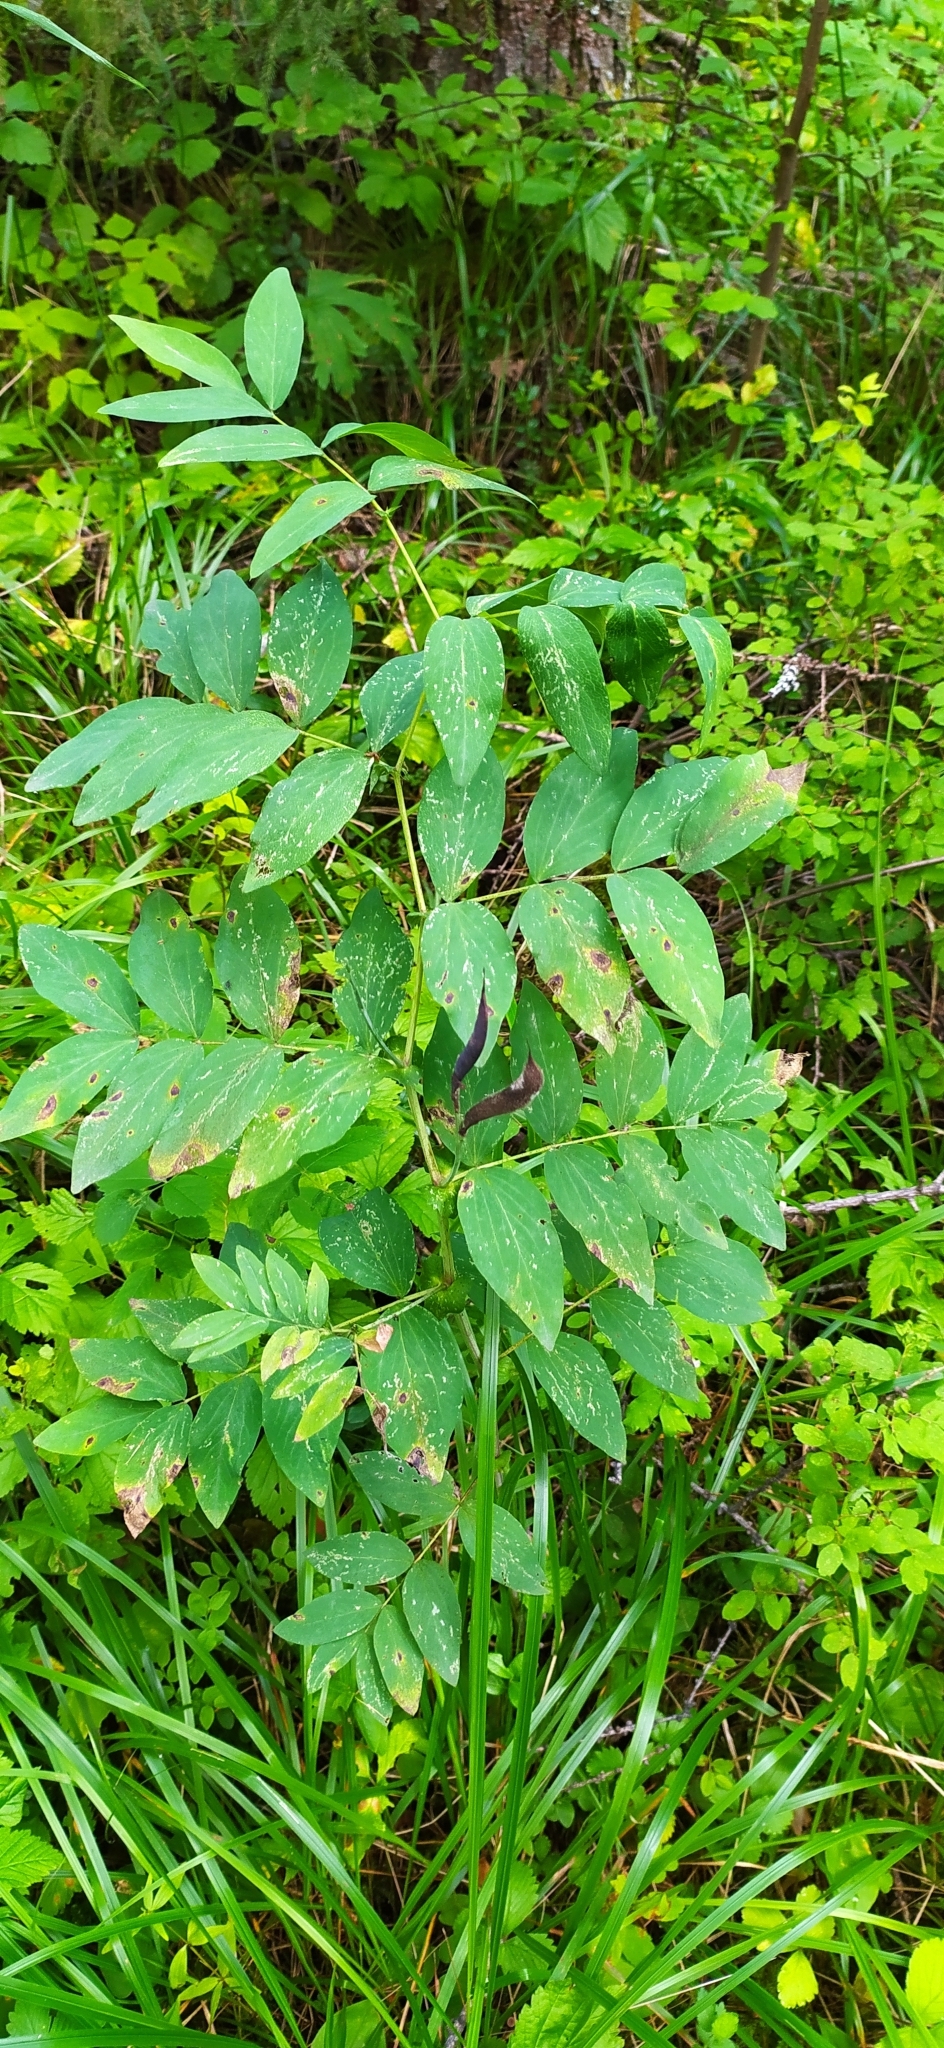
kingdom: Plantae
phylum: Tracheophyta
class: Magnoliopsida
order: Fabales
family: Fabaceae
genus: Lathyrus
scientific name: Lathyrus gmelinii
